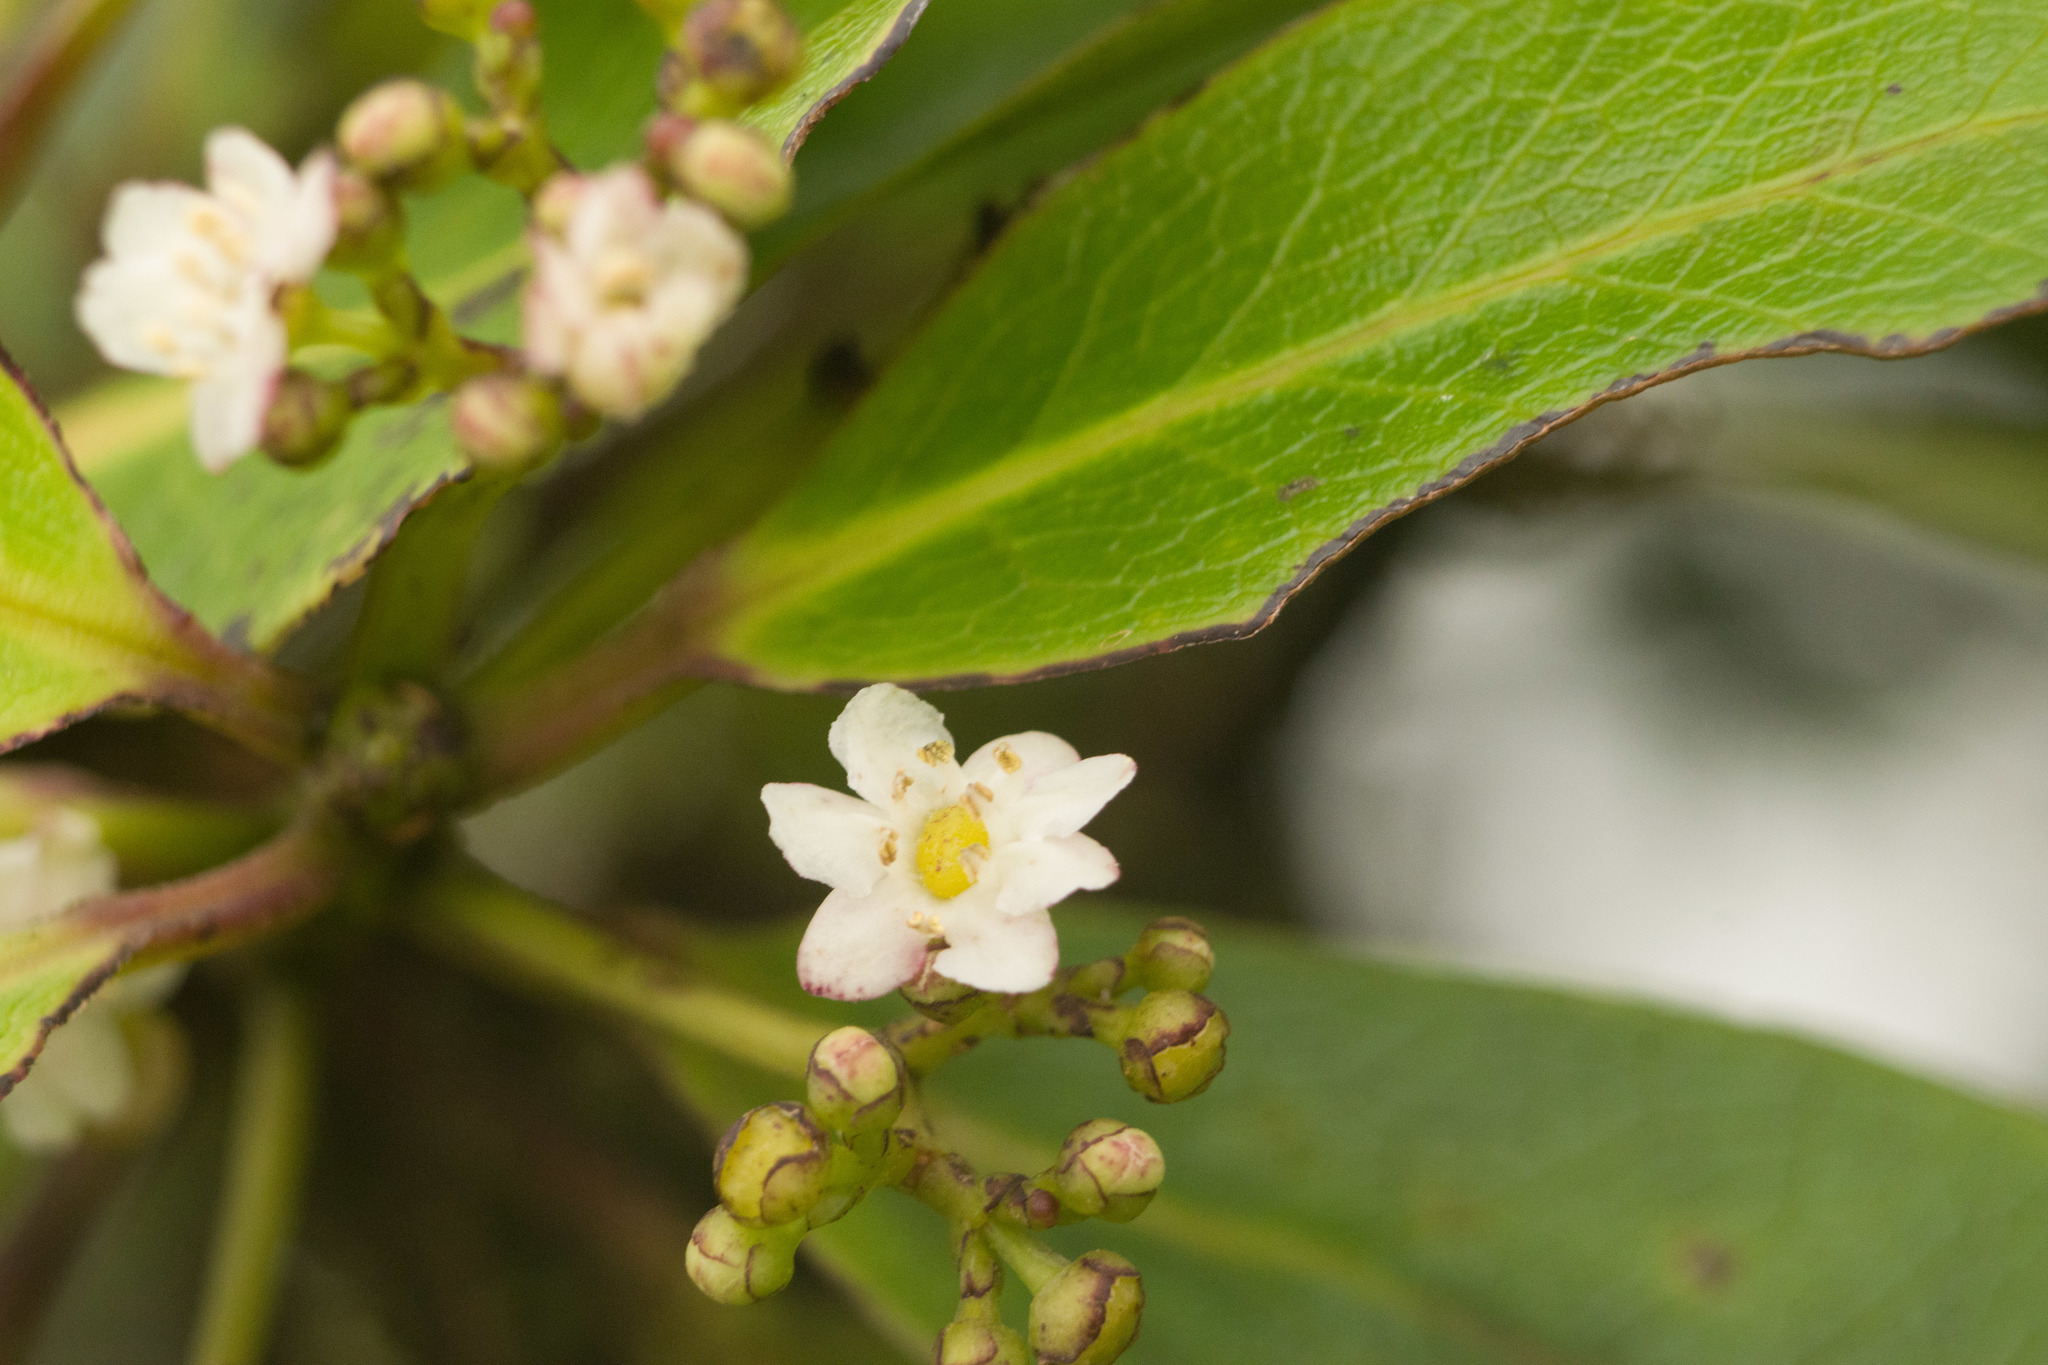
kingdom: Plantae
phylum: Tracheophyta
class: Magnoliopsida
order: Aquifoliales
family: Aquifoliaceae
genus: Ilex
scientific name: Ilex anomala
